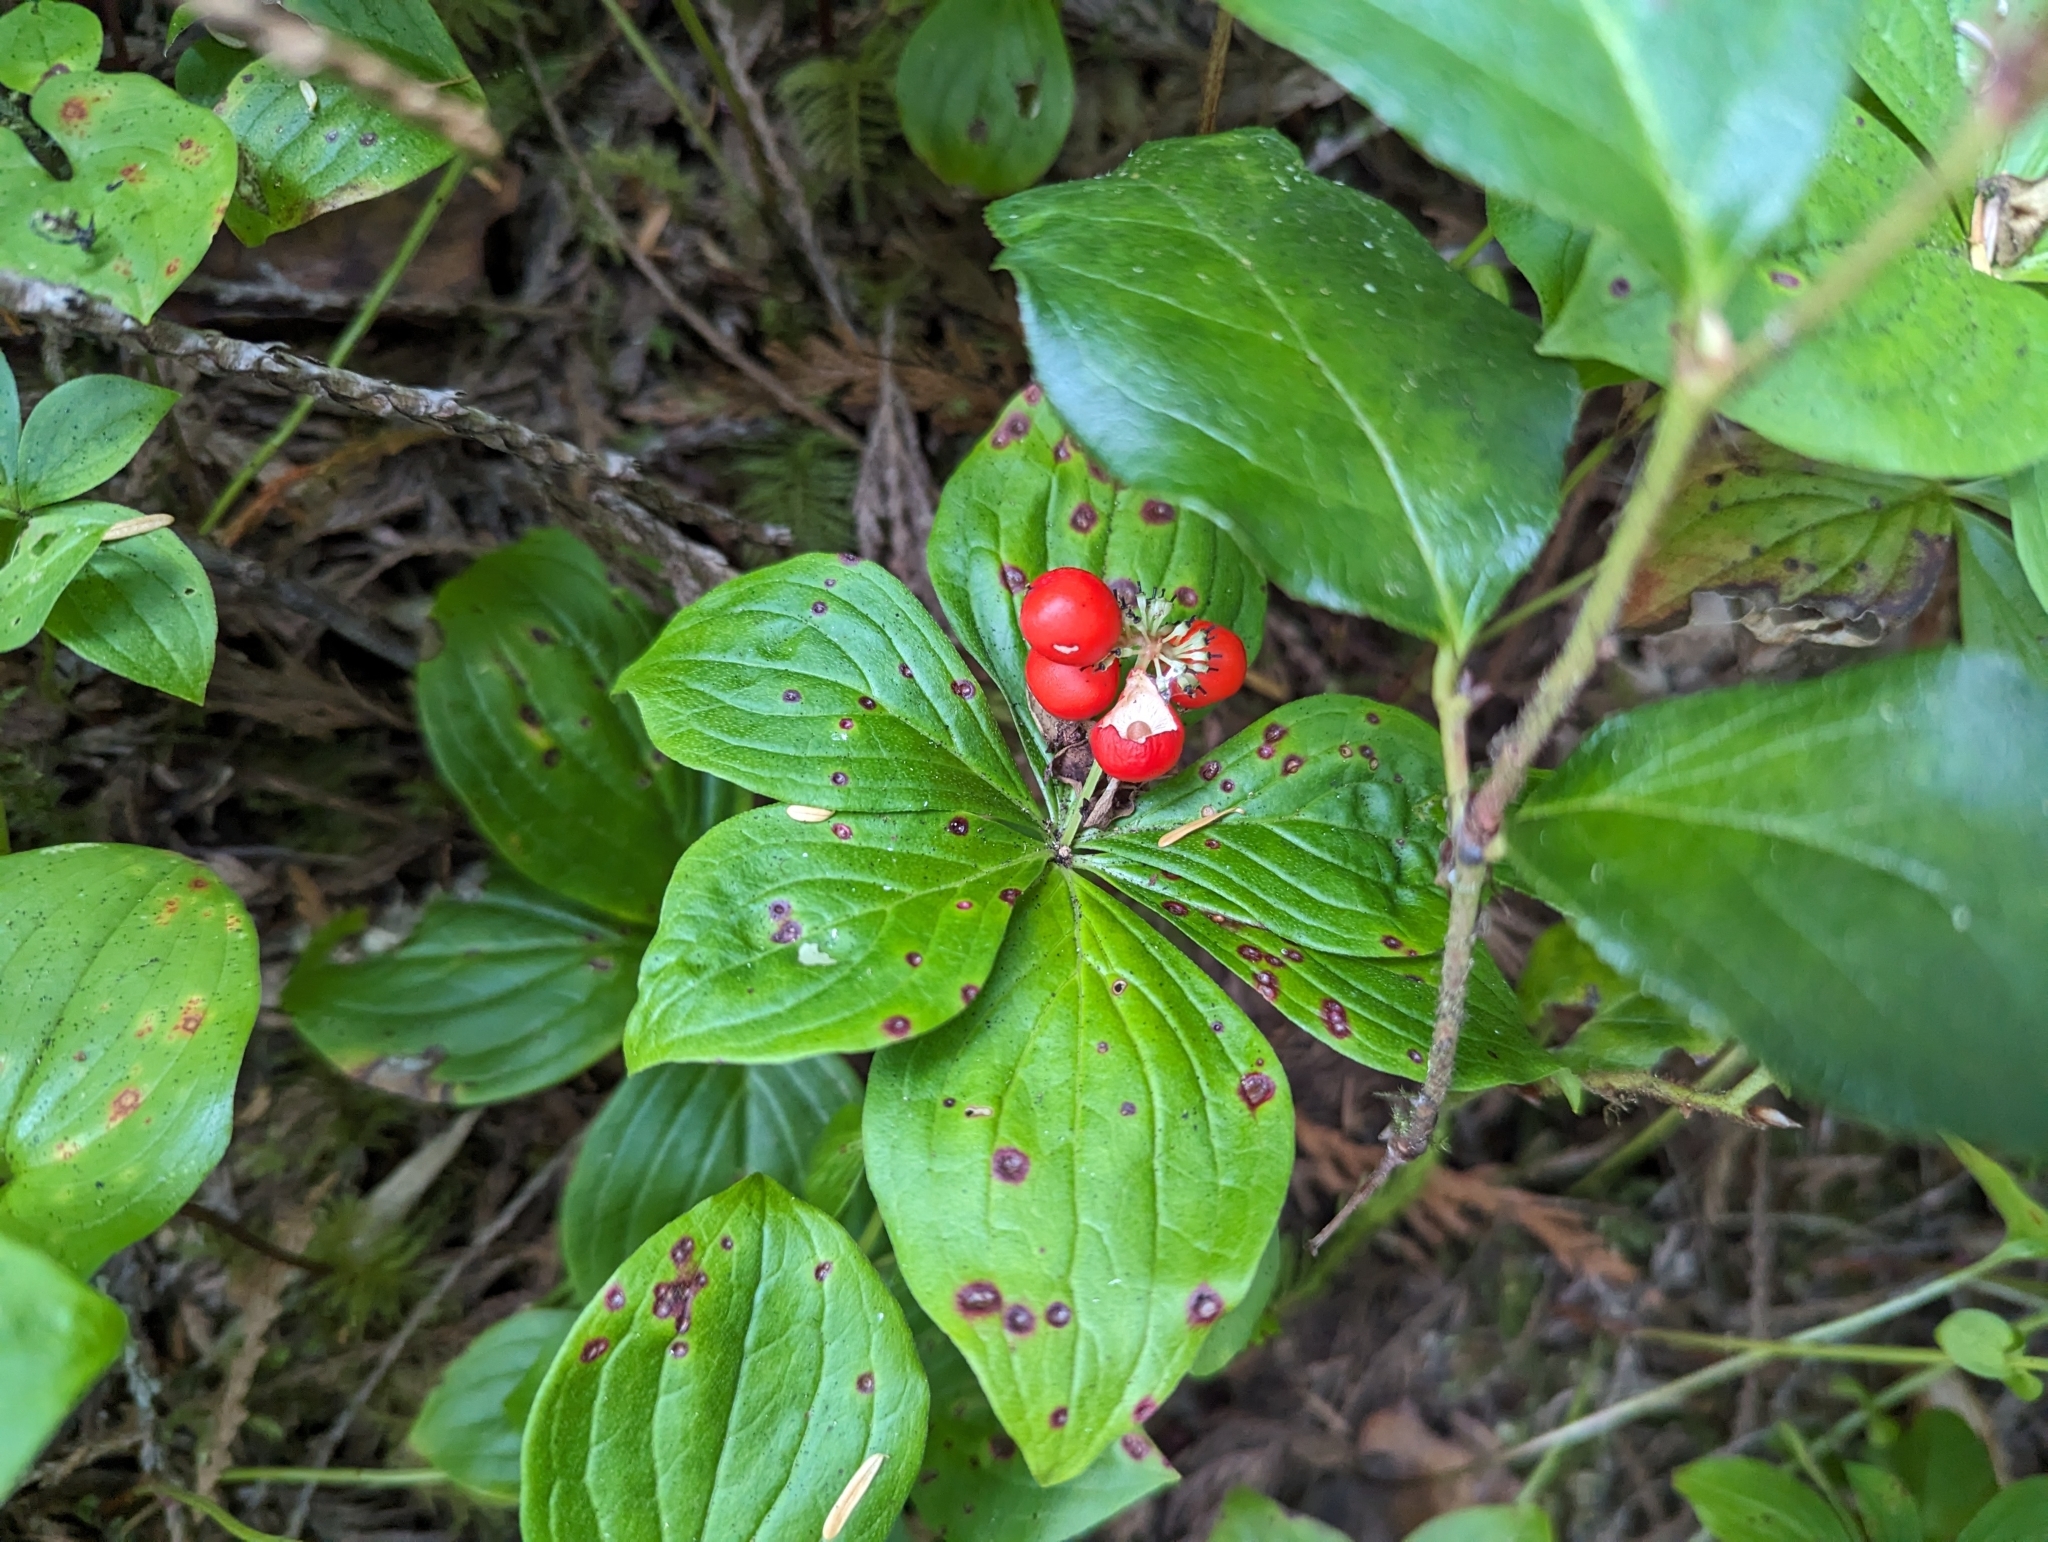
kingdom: Plantae
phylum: Tracheophyta
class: Magnoliopsida
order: Cornales
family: Cornaceae
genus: Cornus
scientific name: Cornus unalaschkensis
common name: Alaska bunchberry
